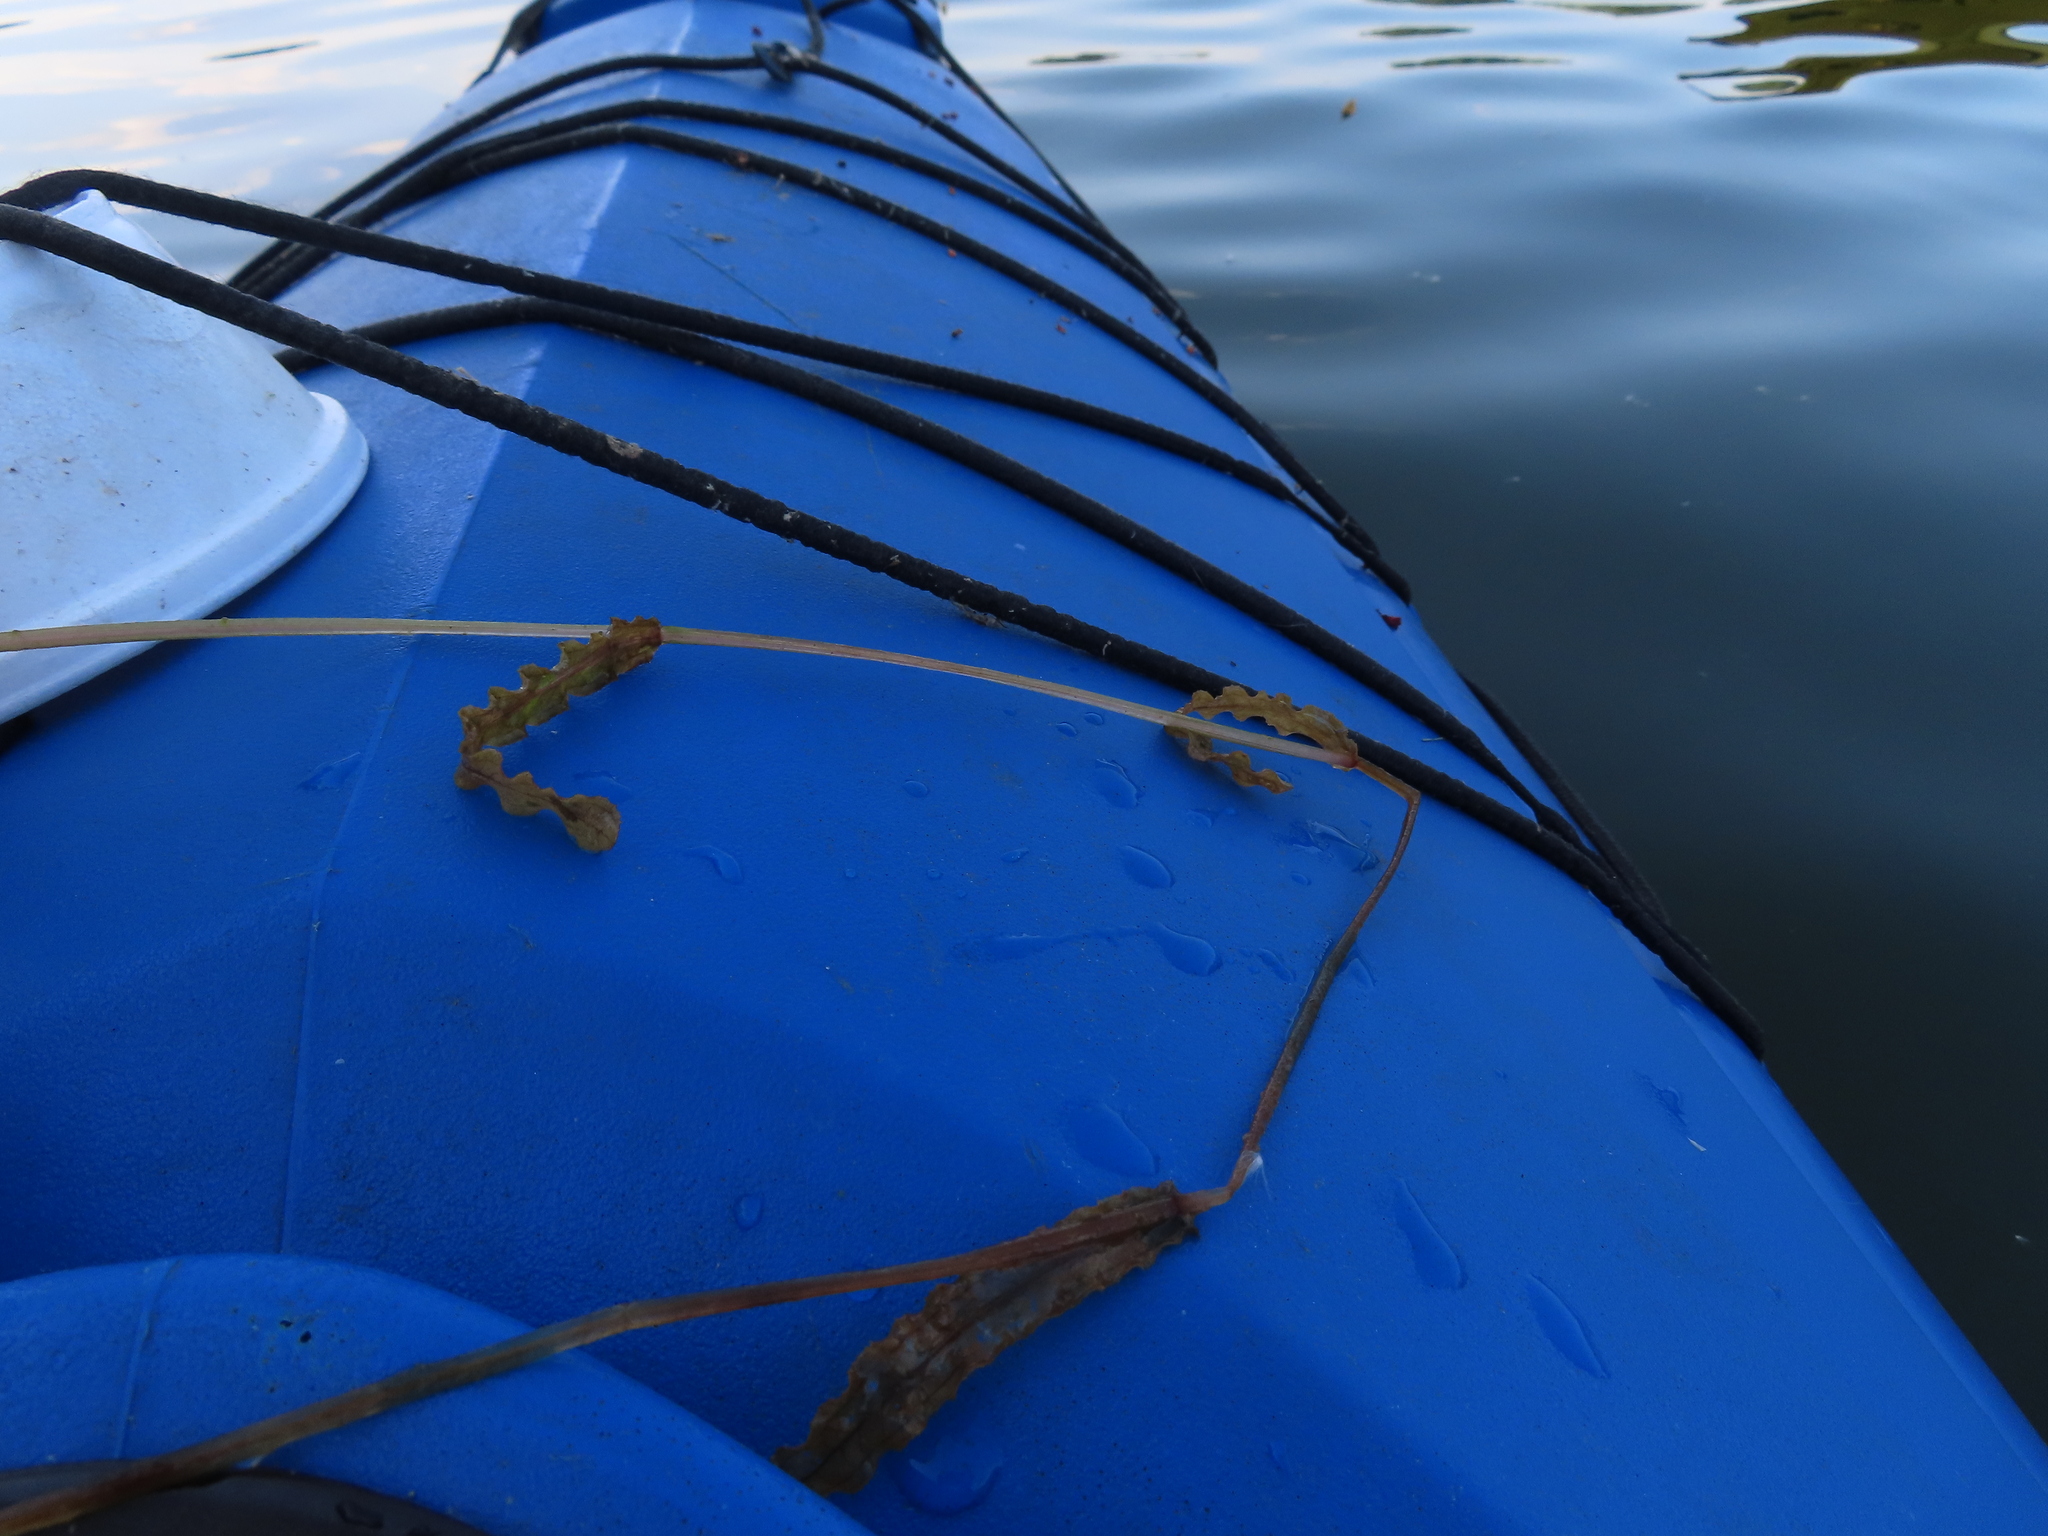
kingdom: Plantae
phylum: Tracheophyta
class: Liliopsida
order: Alismatales
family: Potamogetonaceae
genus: Potamogeton
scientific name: Potamogeton crispus
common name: Curled pondweed
